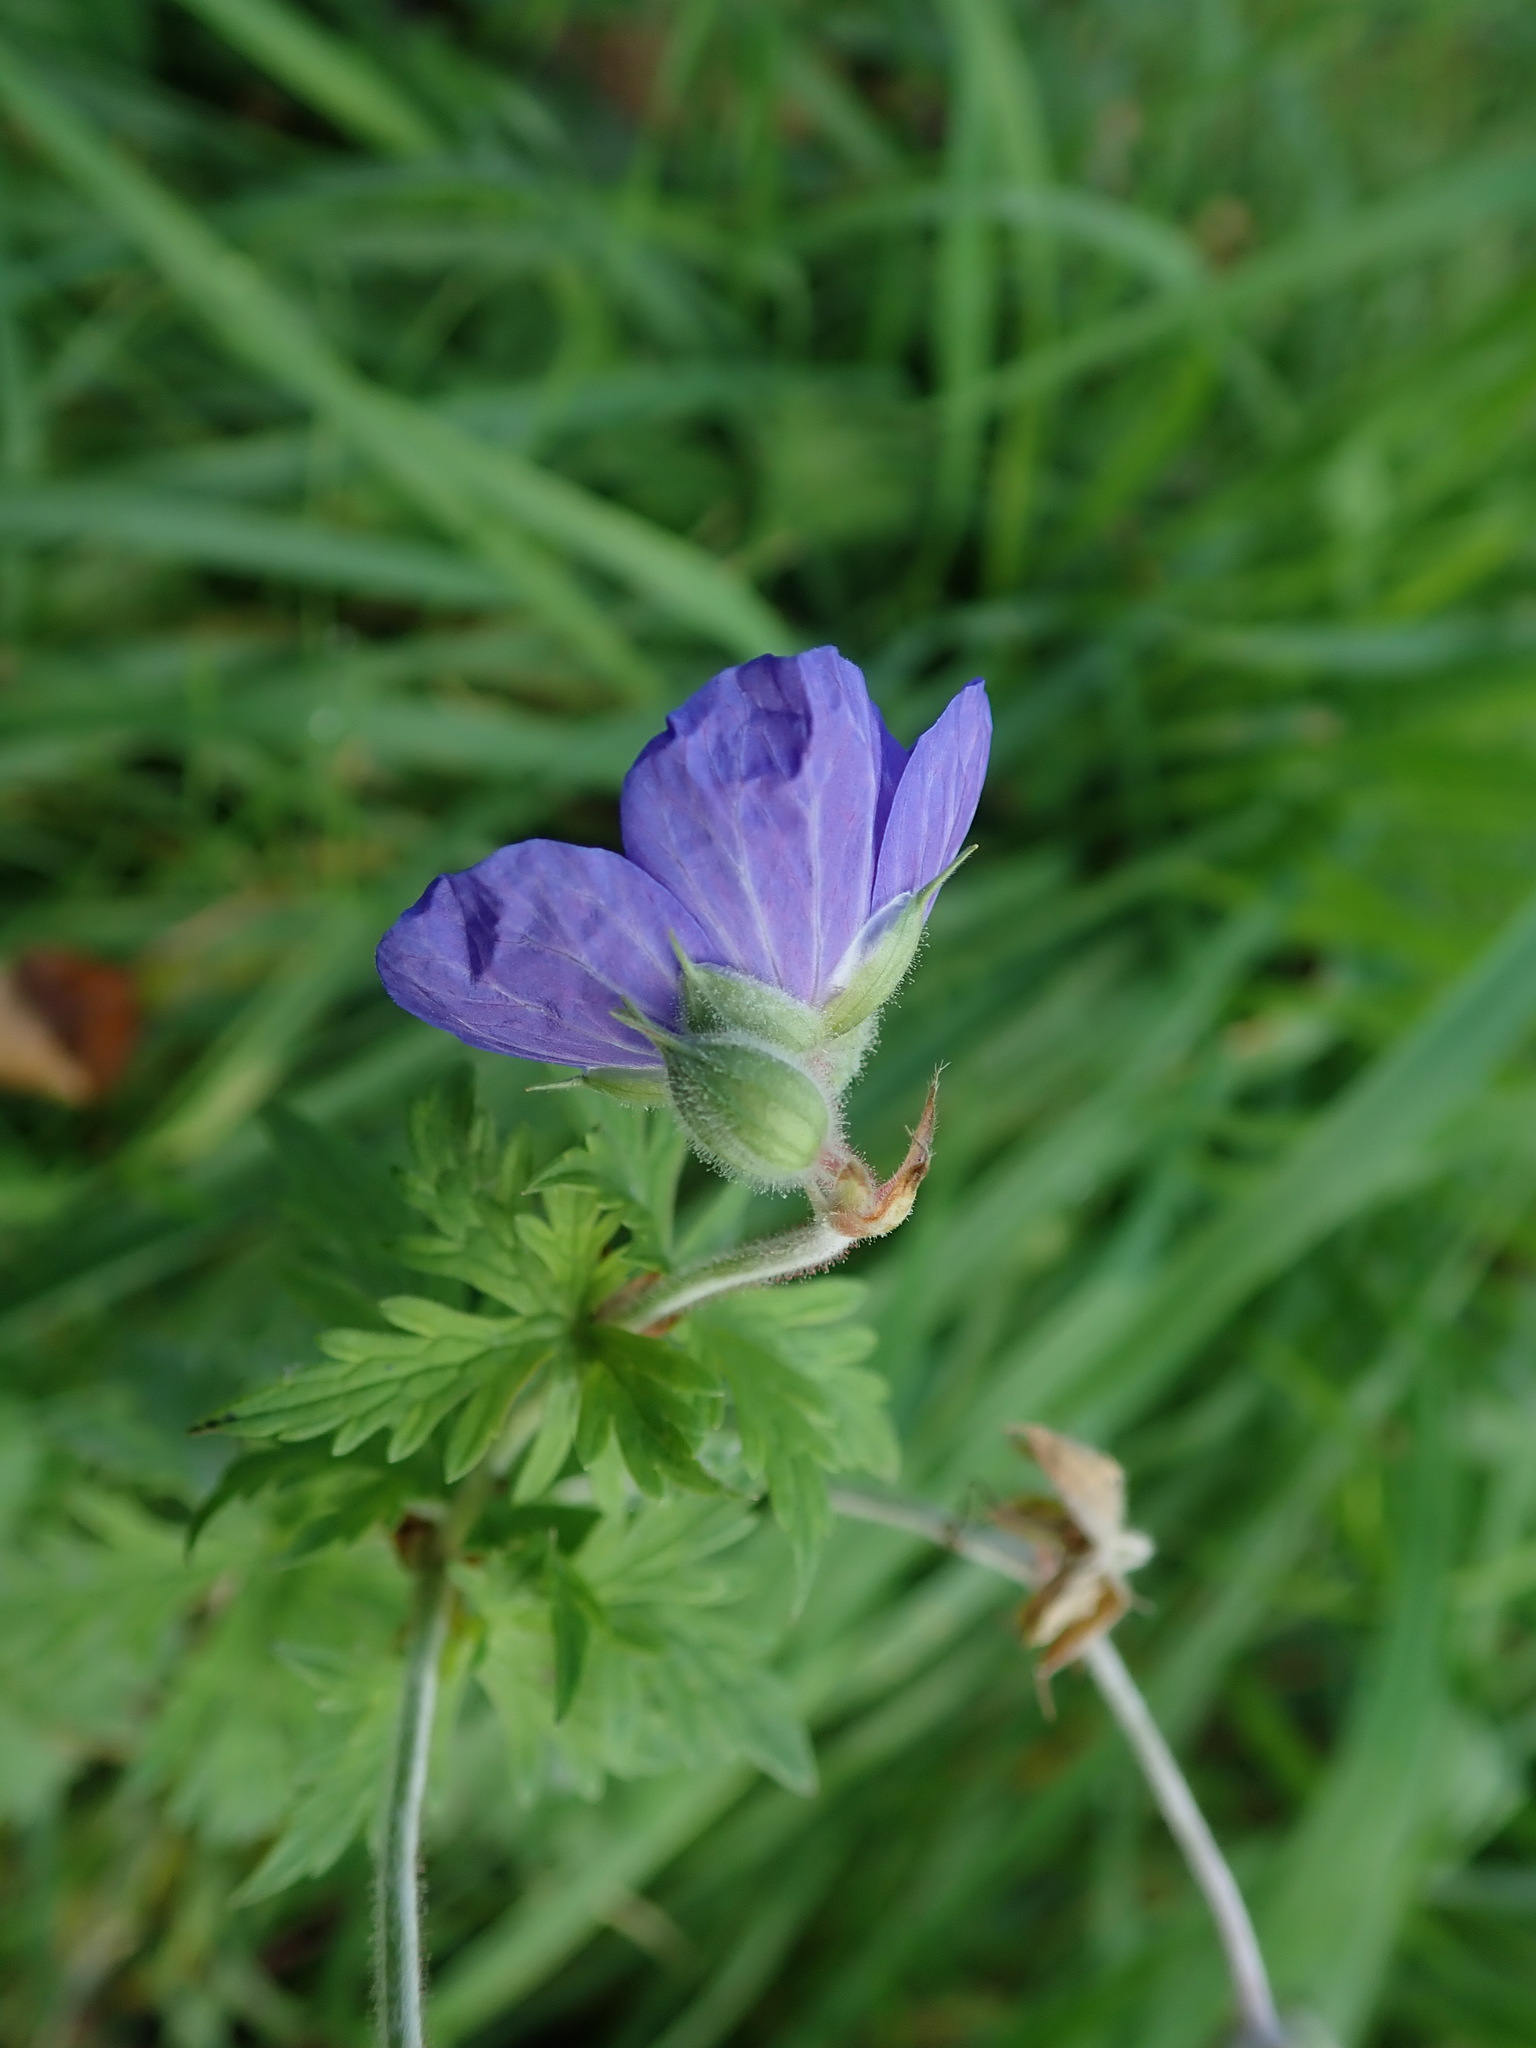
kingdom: Plantae
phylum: Tracheophyta
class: Magnoliopsida
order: Geraniales
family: Geraniaceae
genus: Geranium
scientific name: Geranium pratense
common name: Meadow crane's-bill
